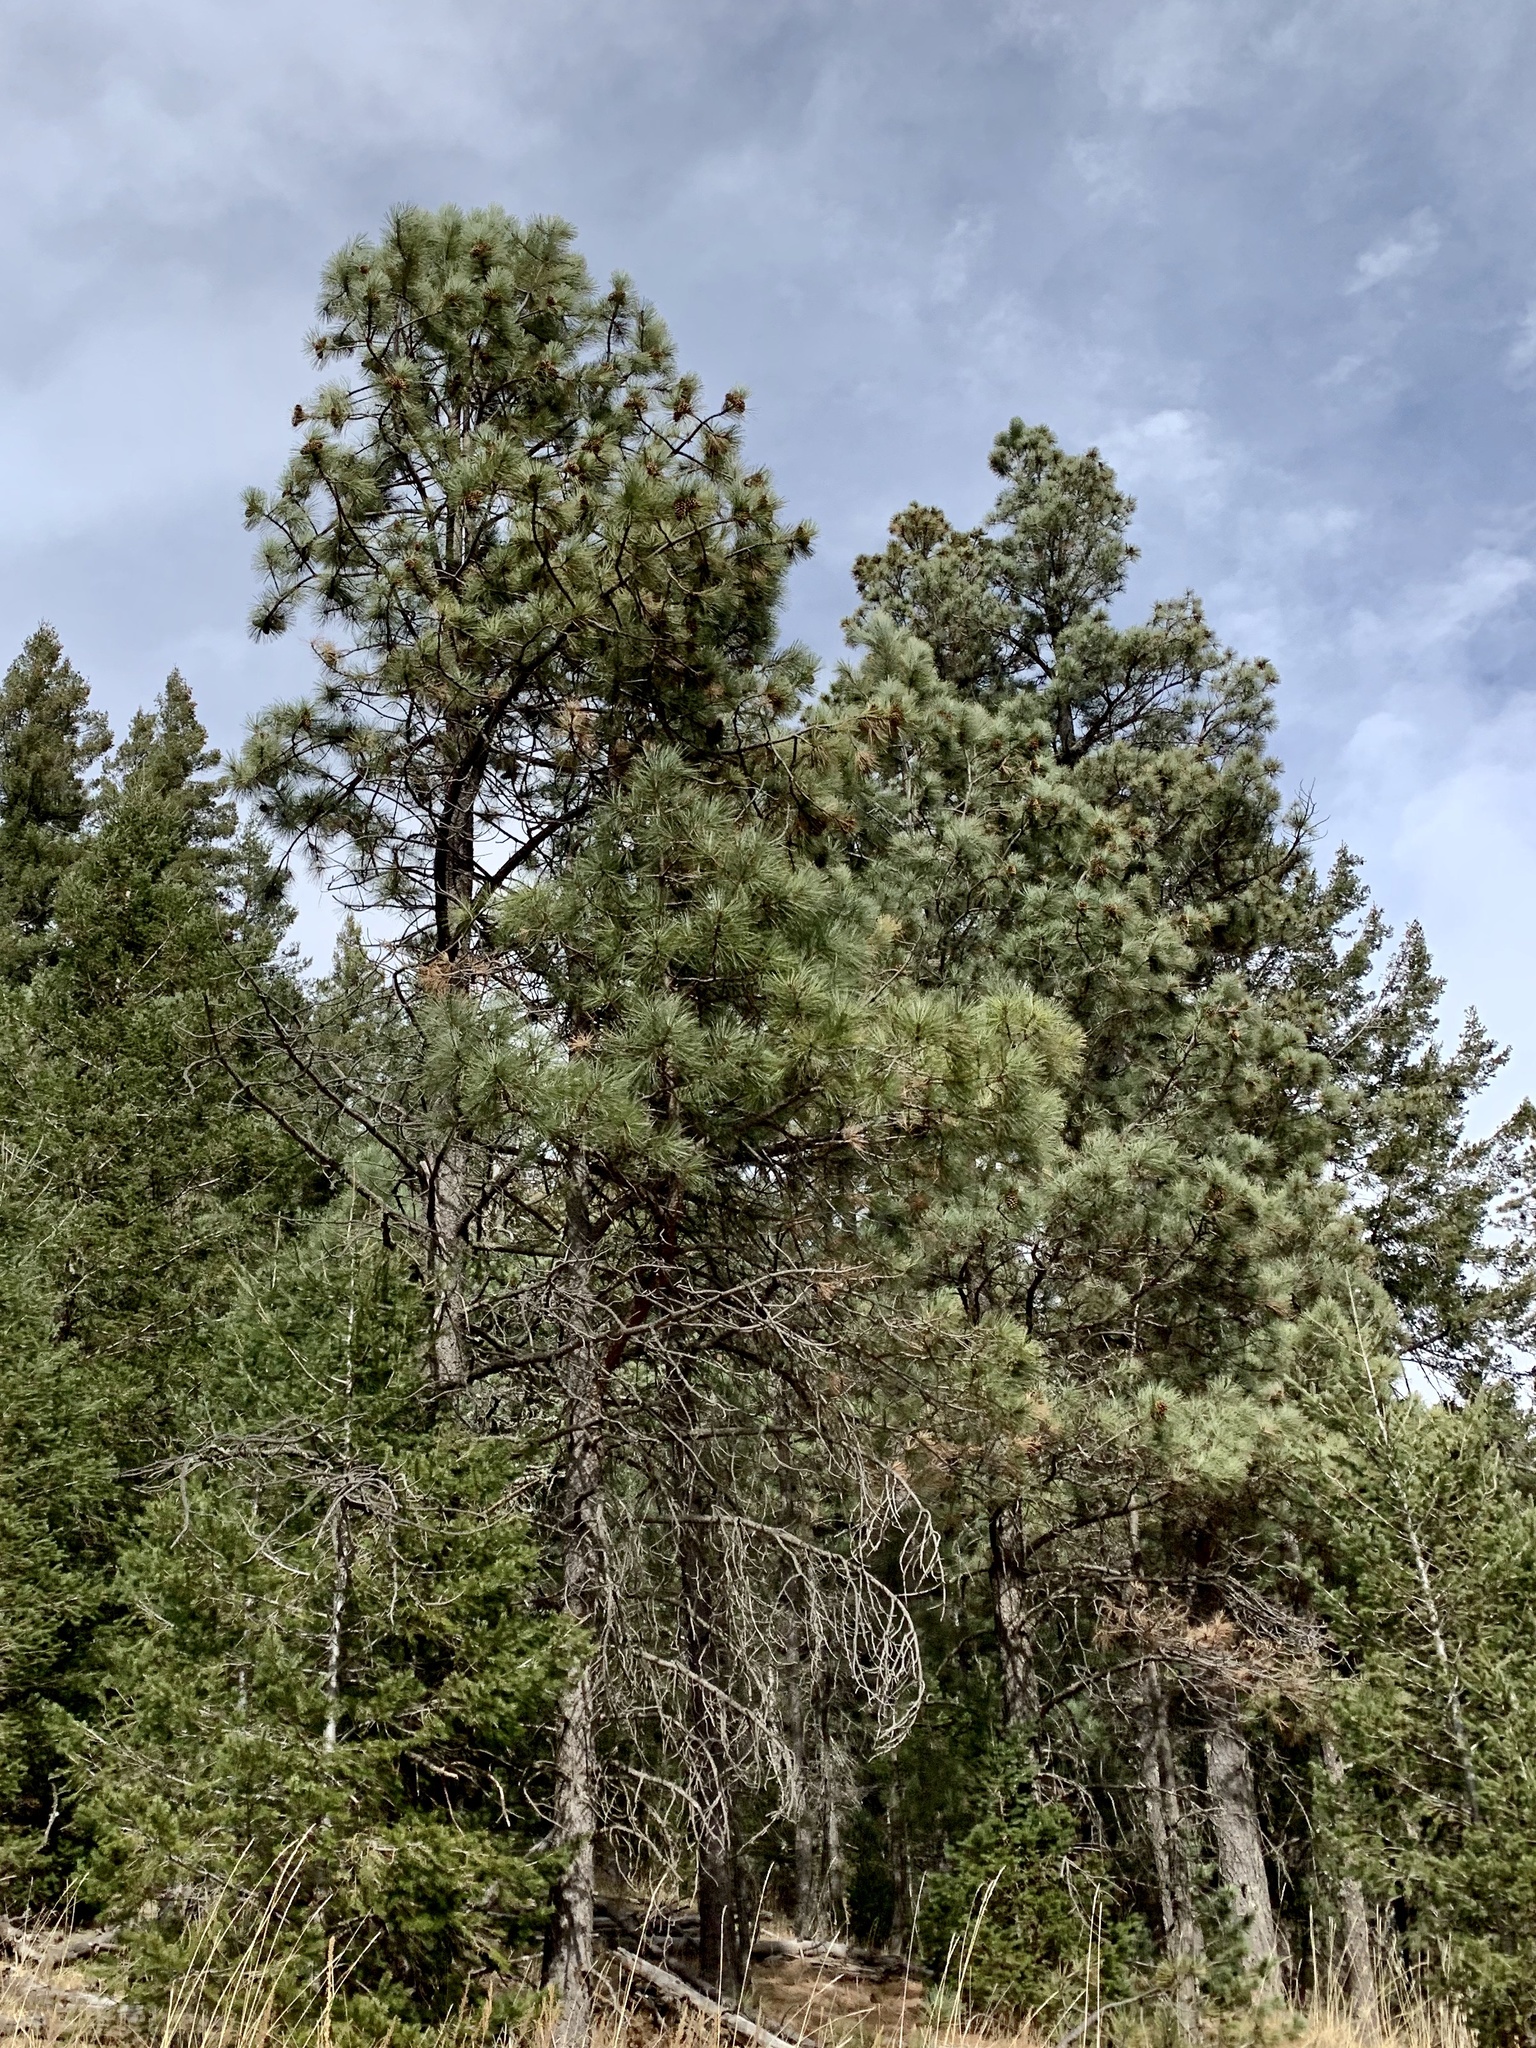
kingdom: Plantae
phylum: Tracheophyta
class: Pinopsida
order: Pinales
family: Pinaceae
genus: Pinus
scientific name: Pinus ponderosa
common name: Western yellow-pine
